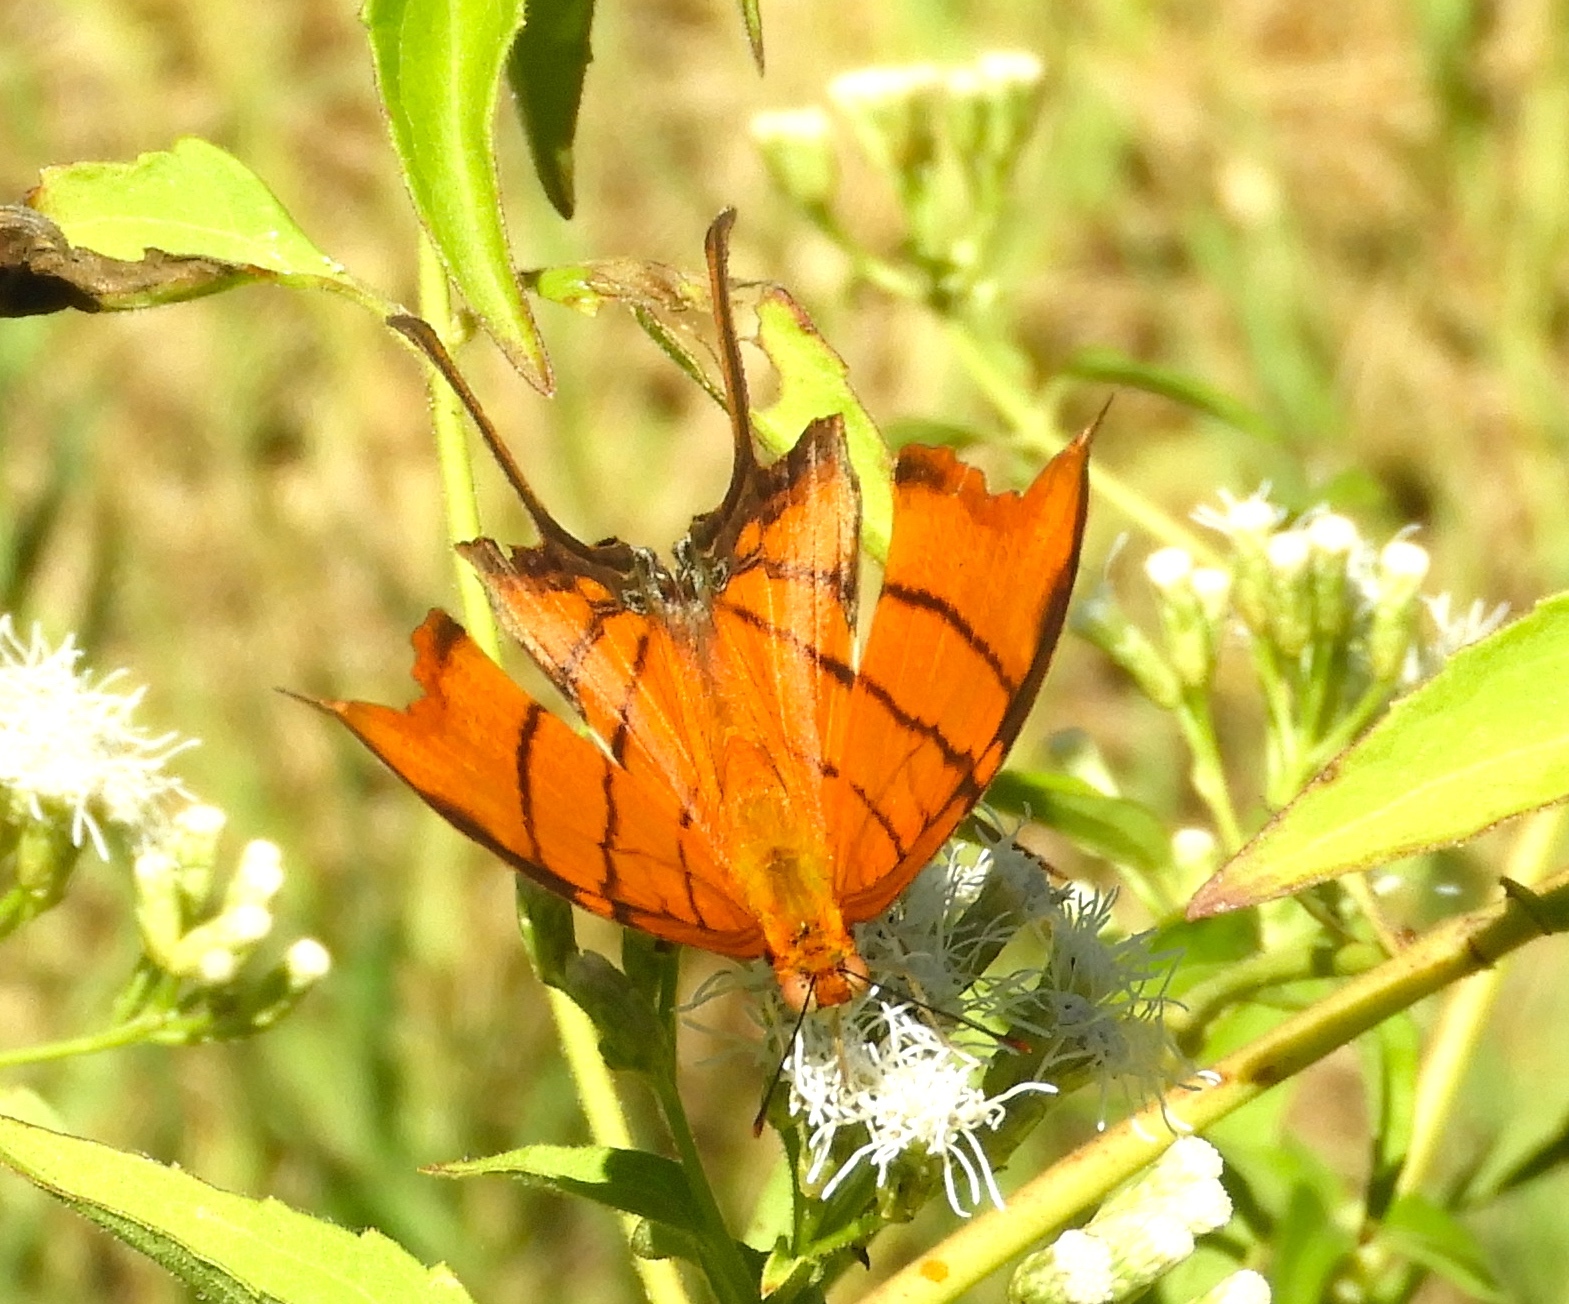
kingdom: Animalia
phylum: Arthropoda
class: Insecta
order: Lepidoptera
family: Nymphalidae
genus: Marpesia
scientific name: Marpesia petreus
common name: Red dagger wing
